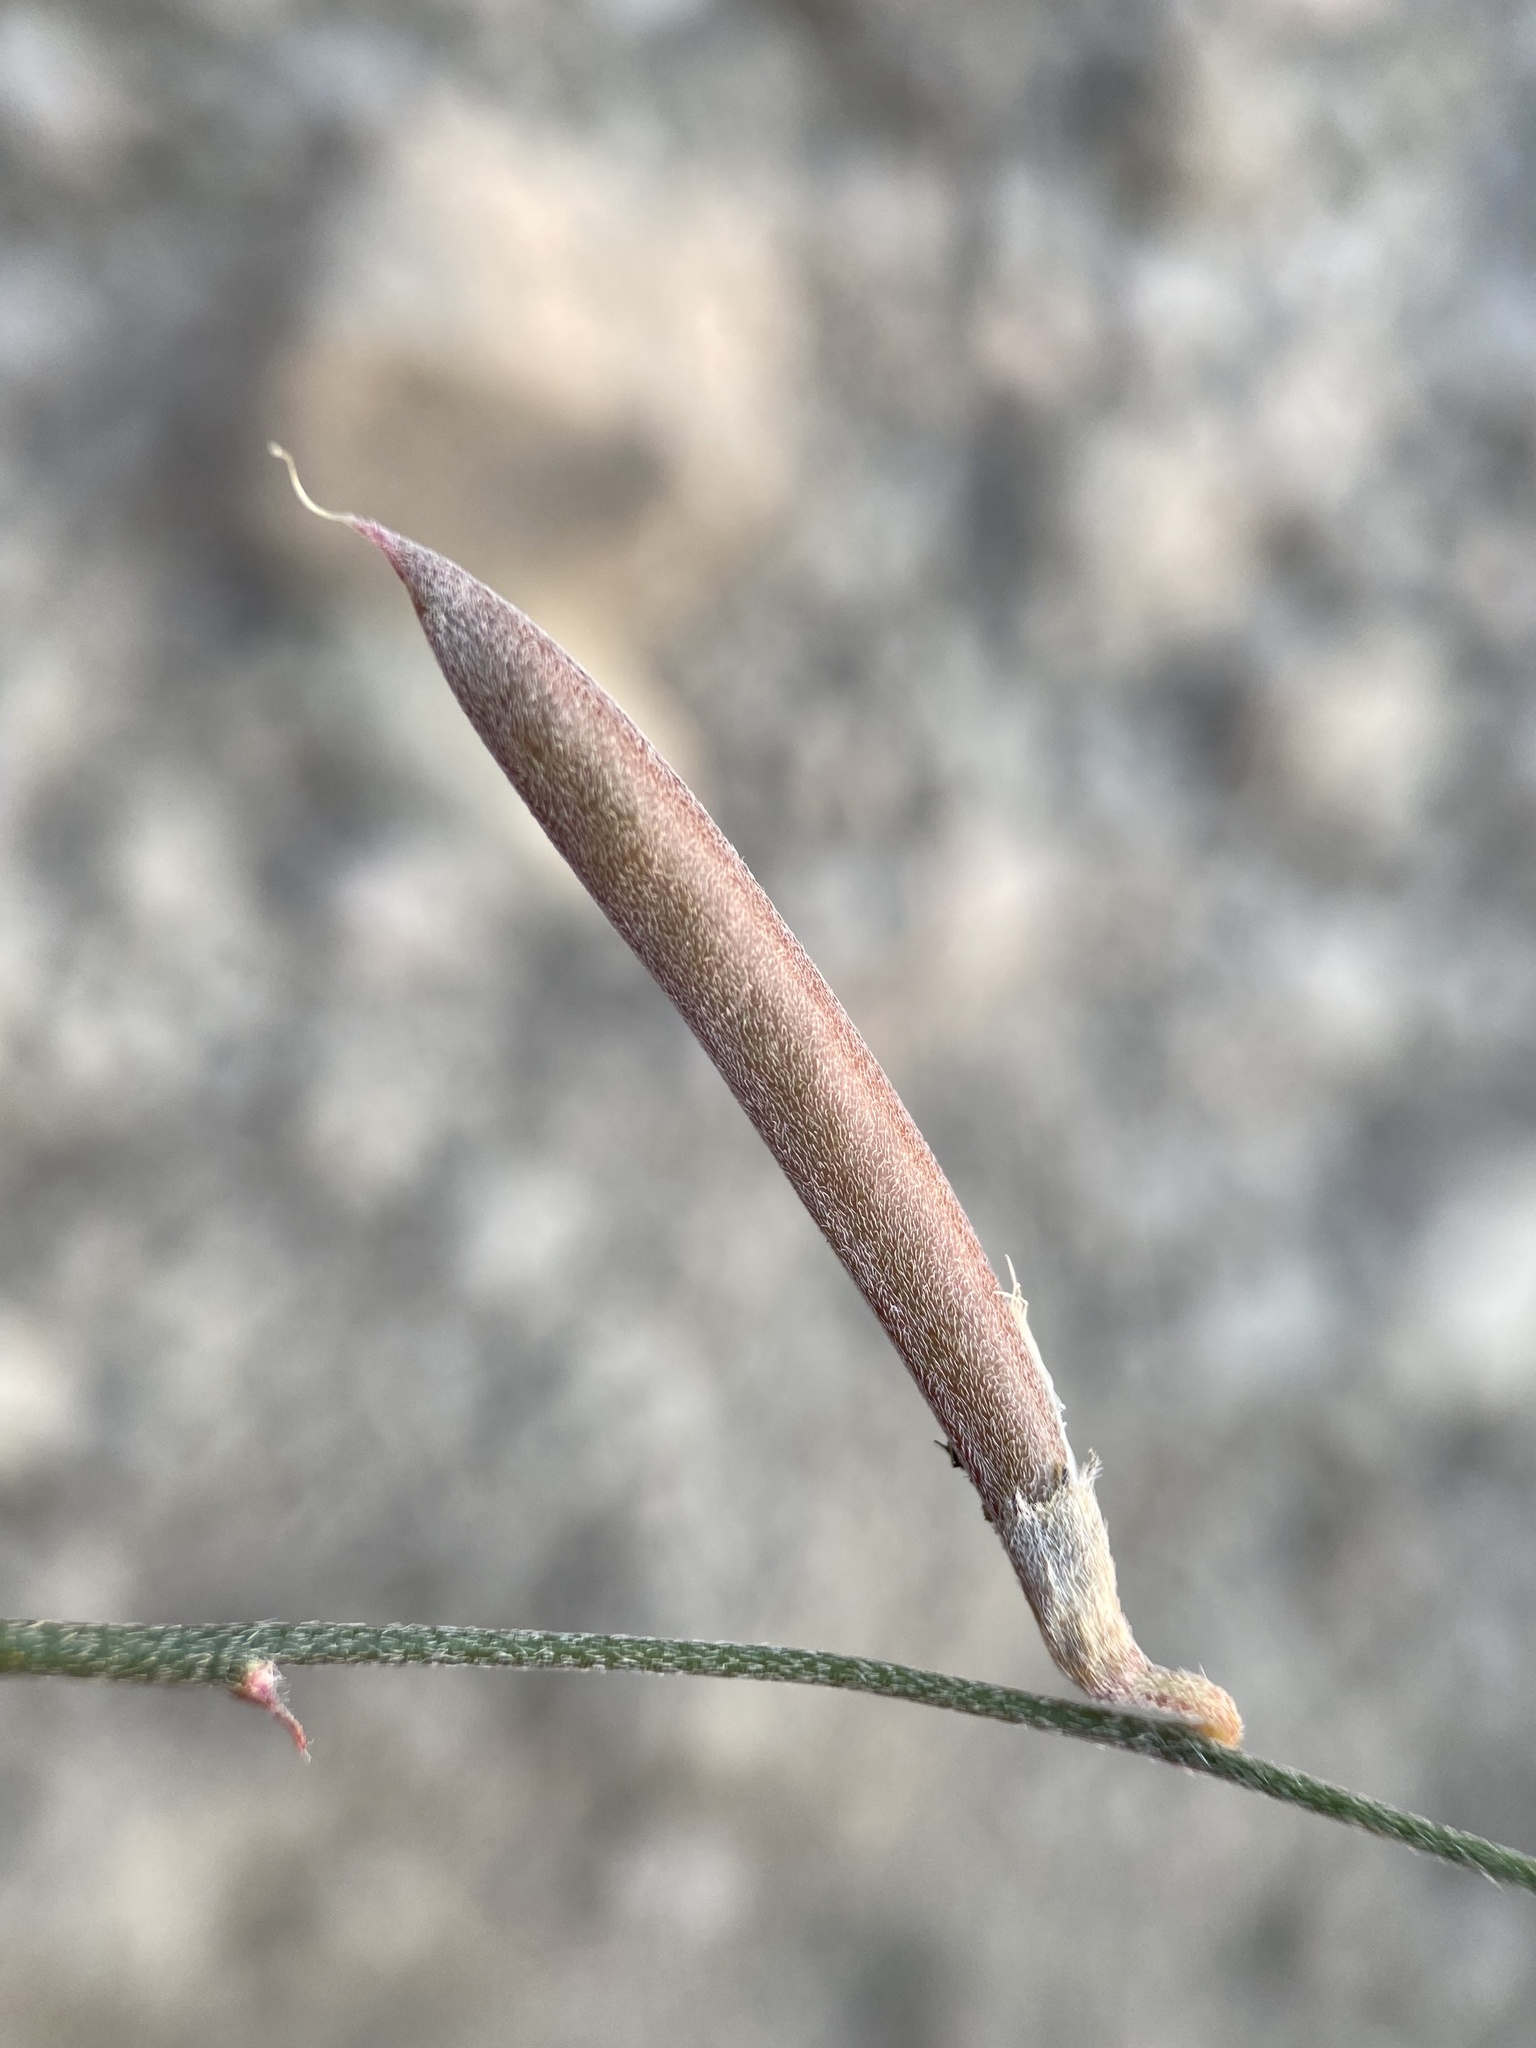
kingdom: Plantae
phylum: Tracheophyta
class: Magnoliopsida
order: Fabales
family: Fabaceae
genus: Astragalus
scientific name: Astragalus convallarius
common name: Lesser rushy milk-vetch
